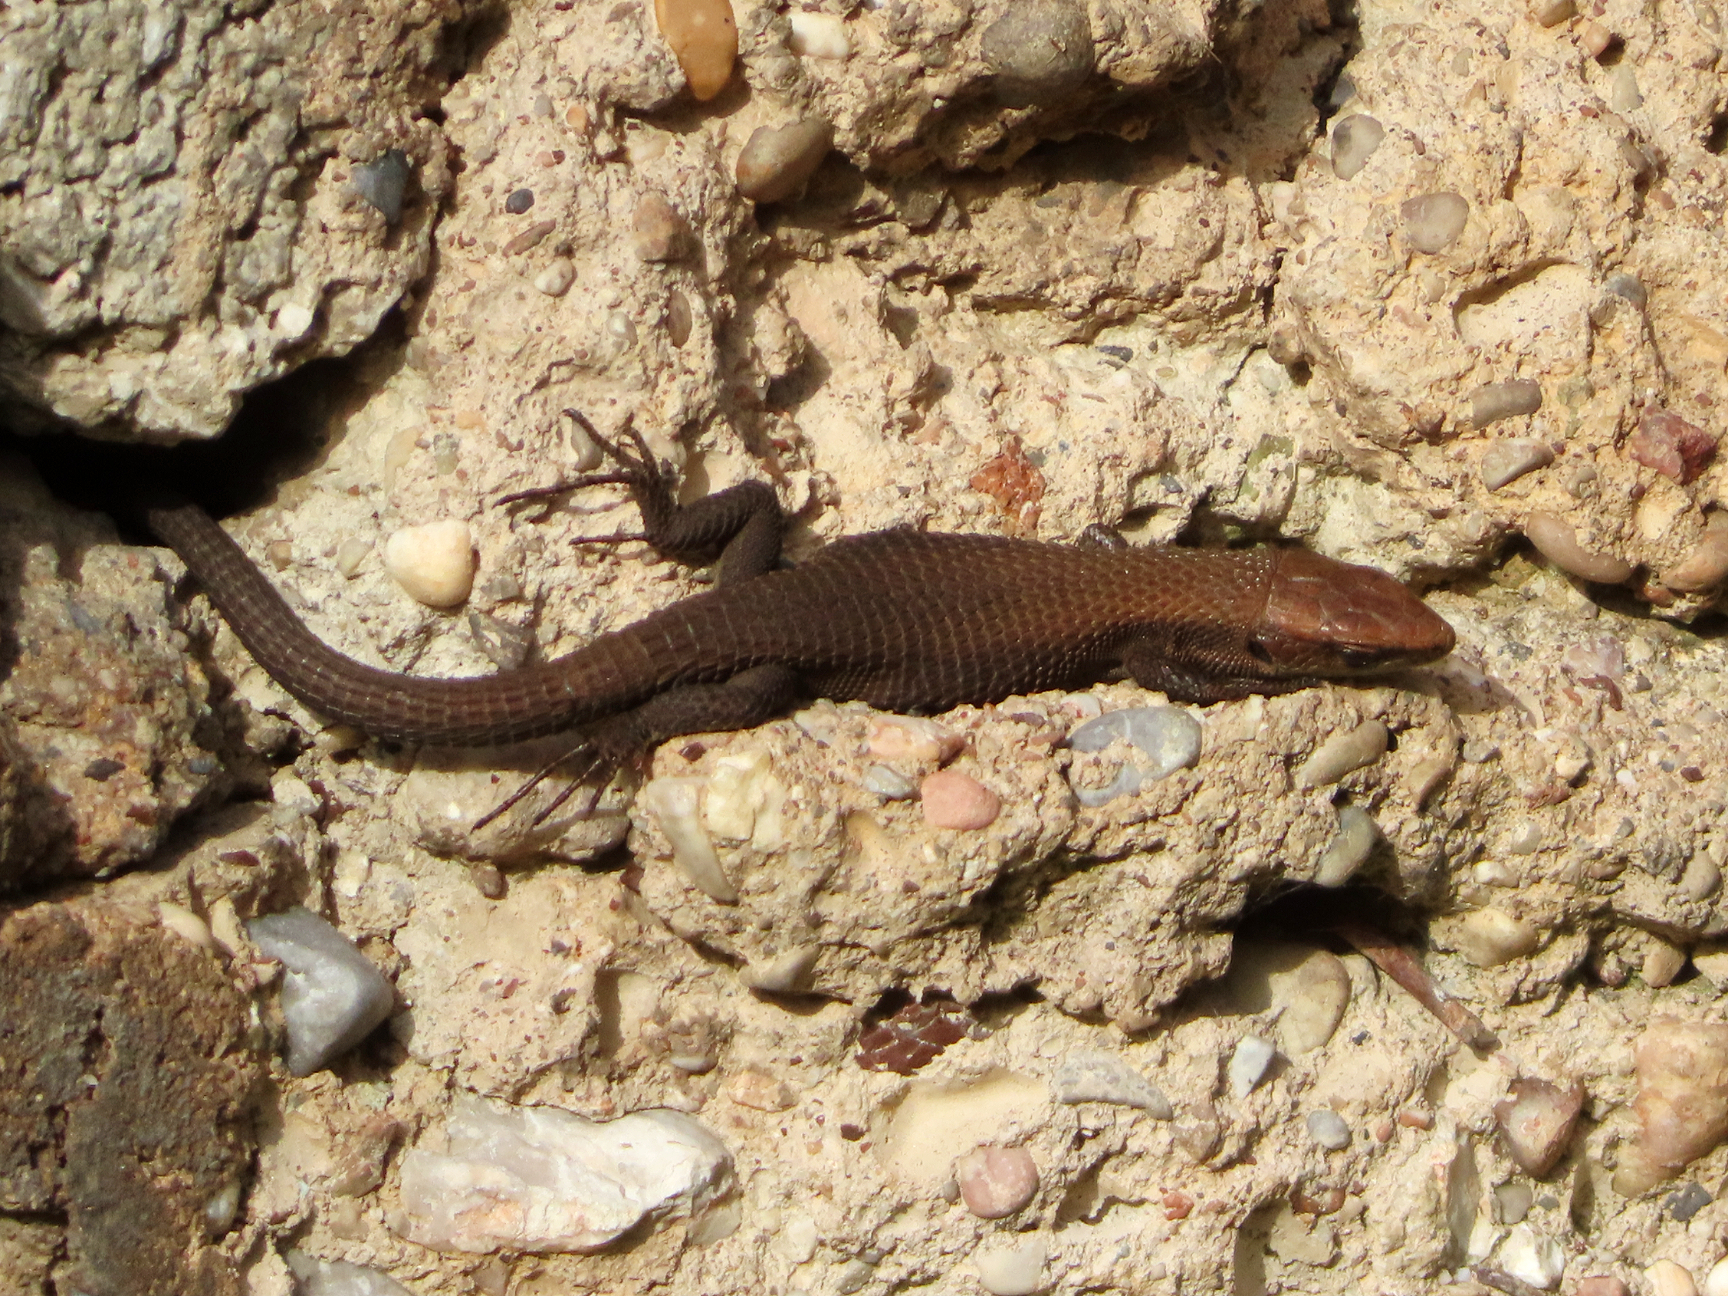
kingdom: Animalia
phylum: Chordata
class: Squamata
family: Lacertidae
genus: Algyroides
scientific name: Algyroides moreoticus
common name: Greek algyroides
